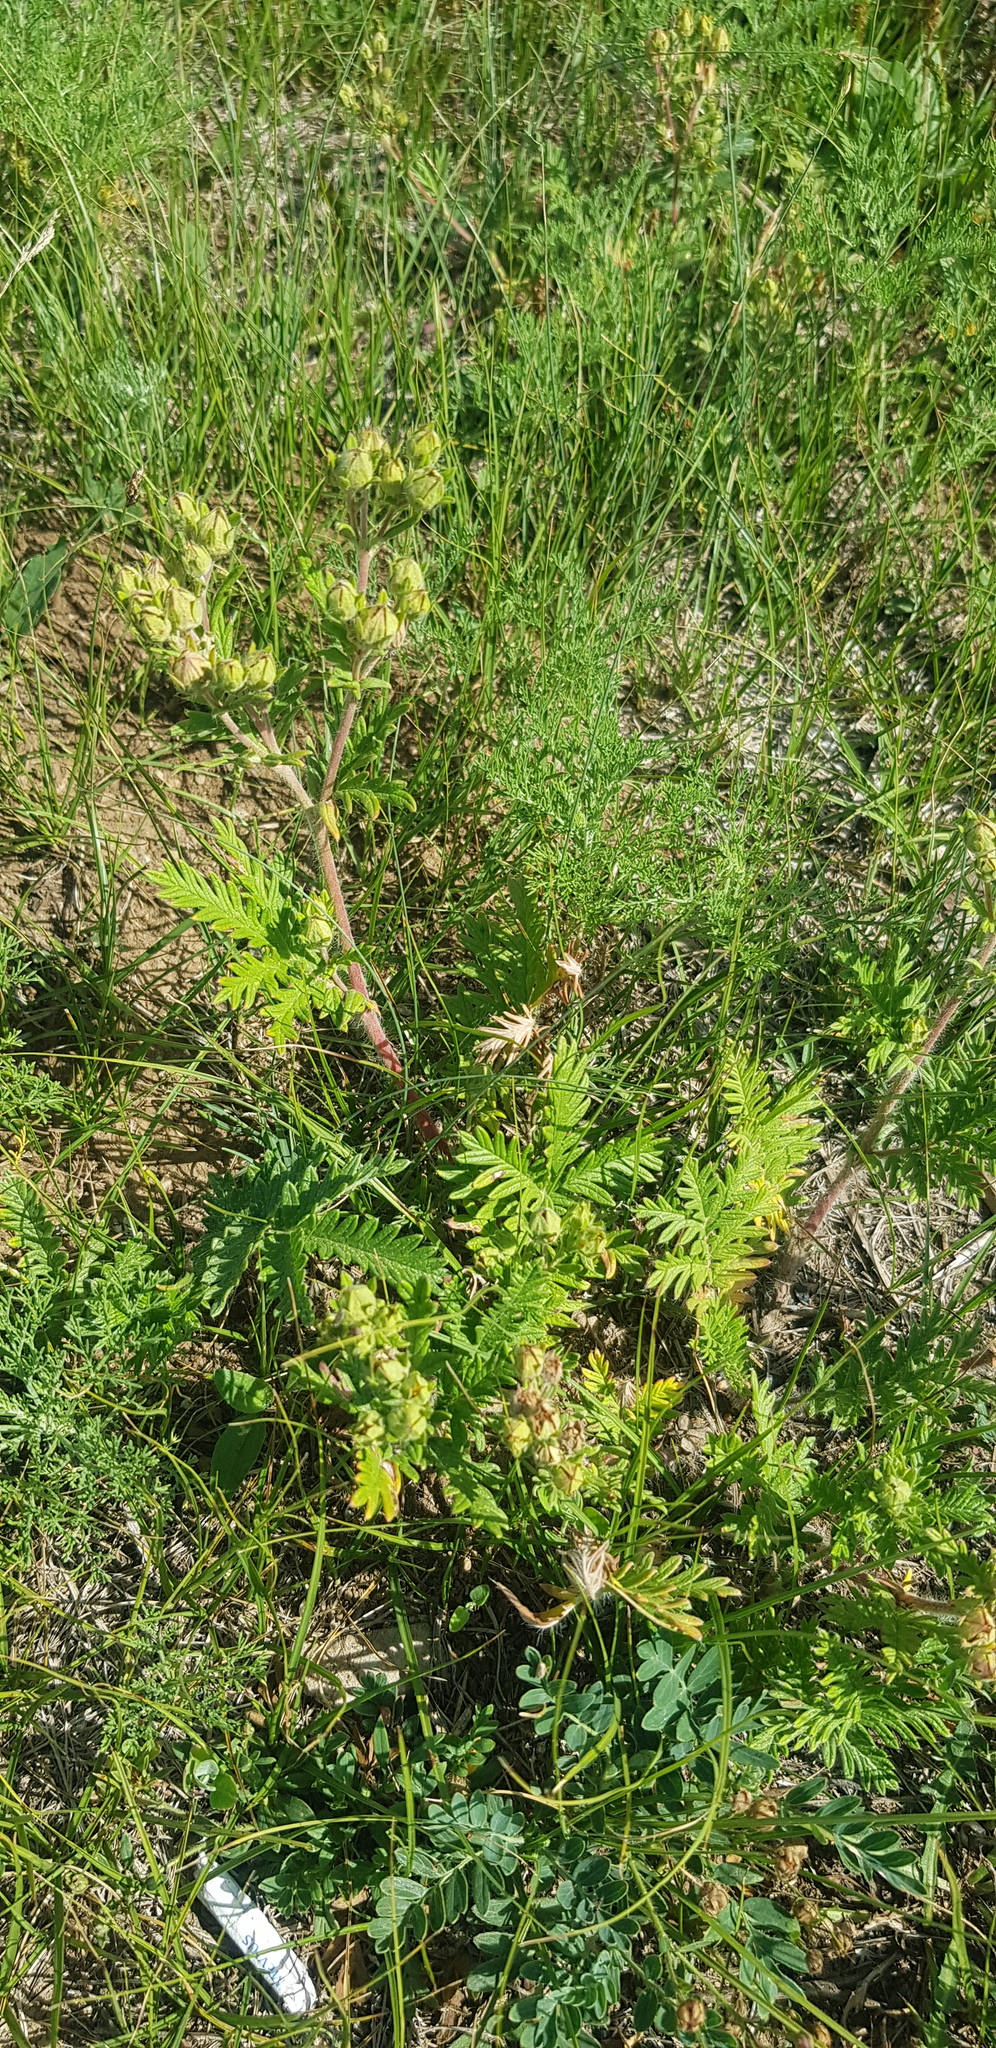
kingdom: Plantae
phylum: Tracheophyta
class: Magnoliopsida
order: Rosales
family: Rosaceae
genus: Potentilla
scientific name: Potentilla tanacetifolia
